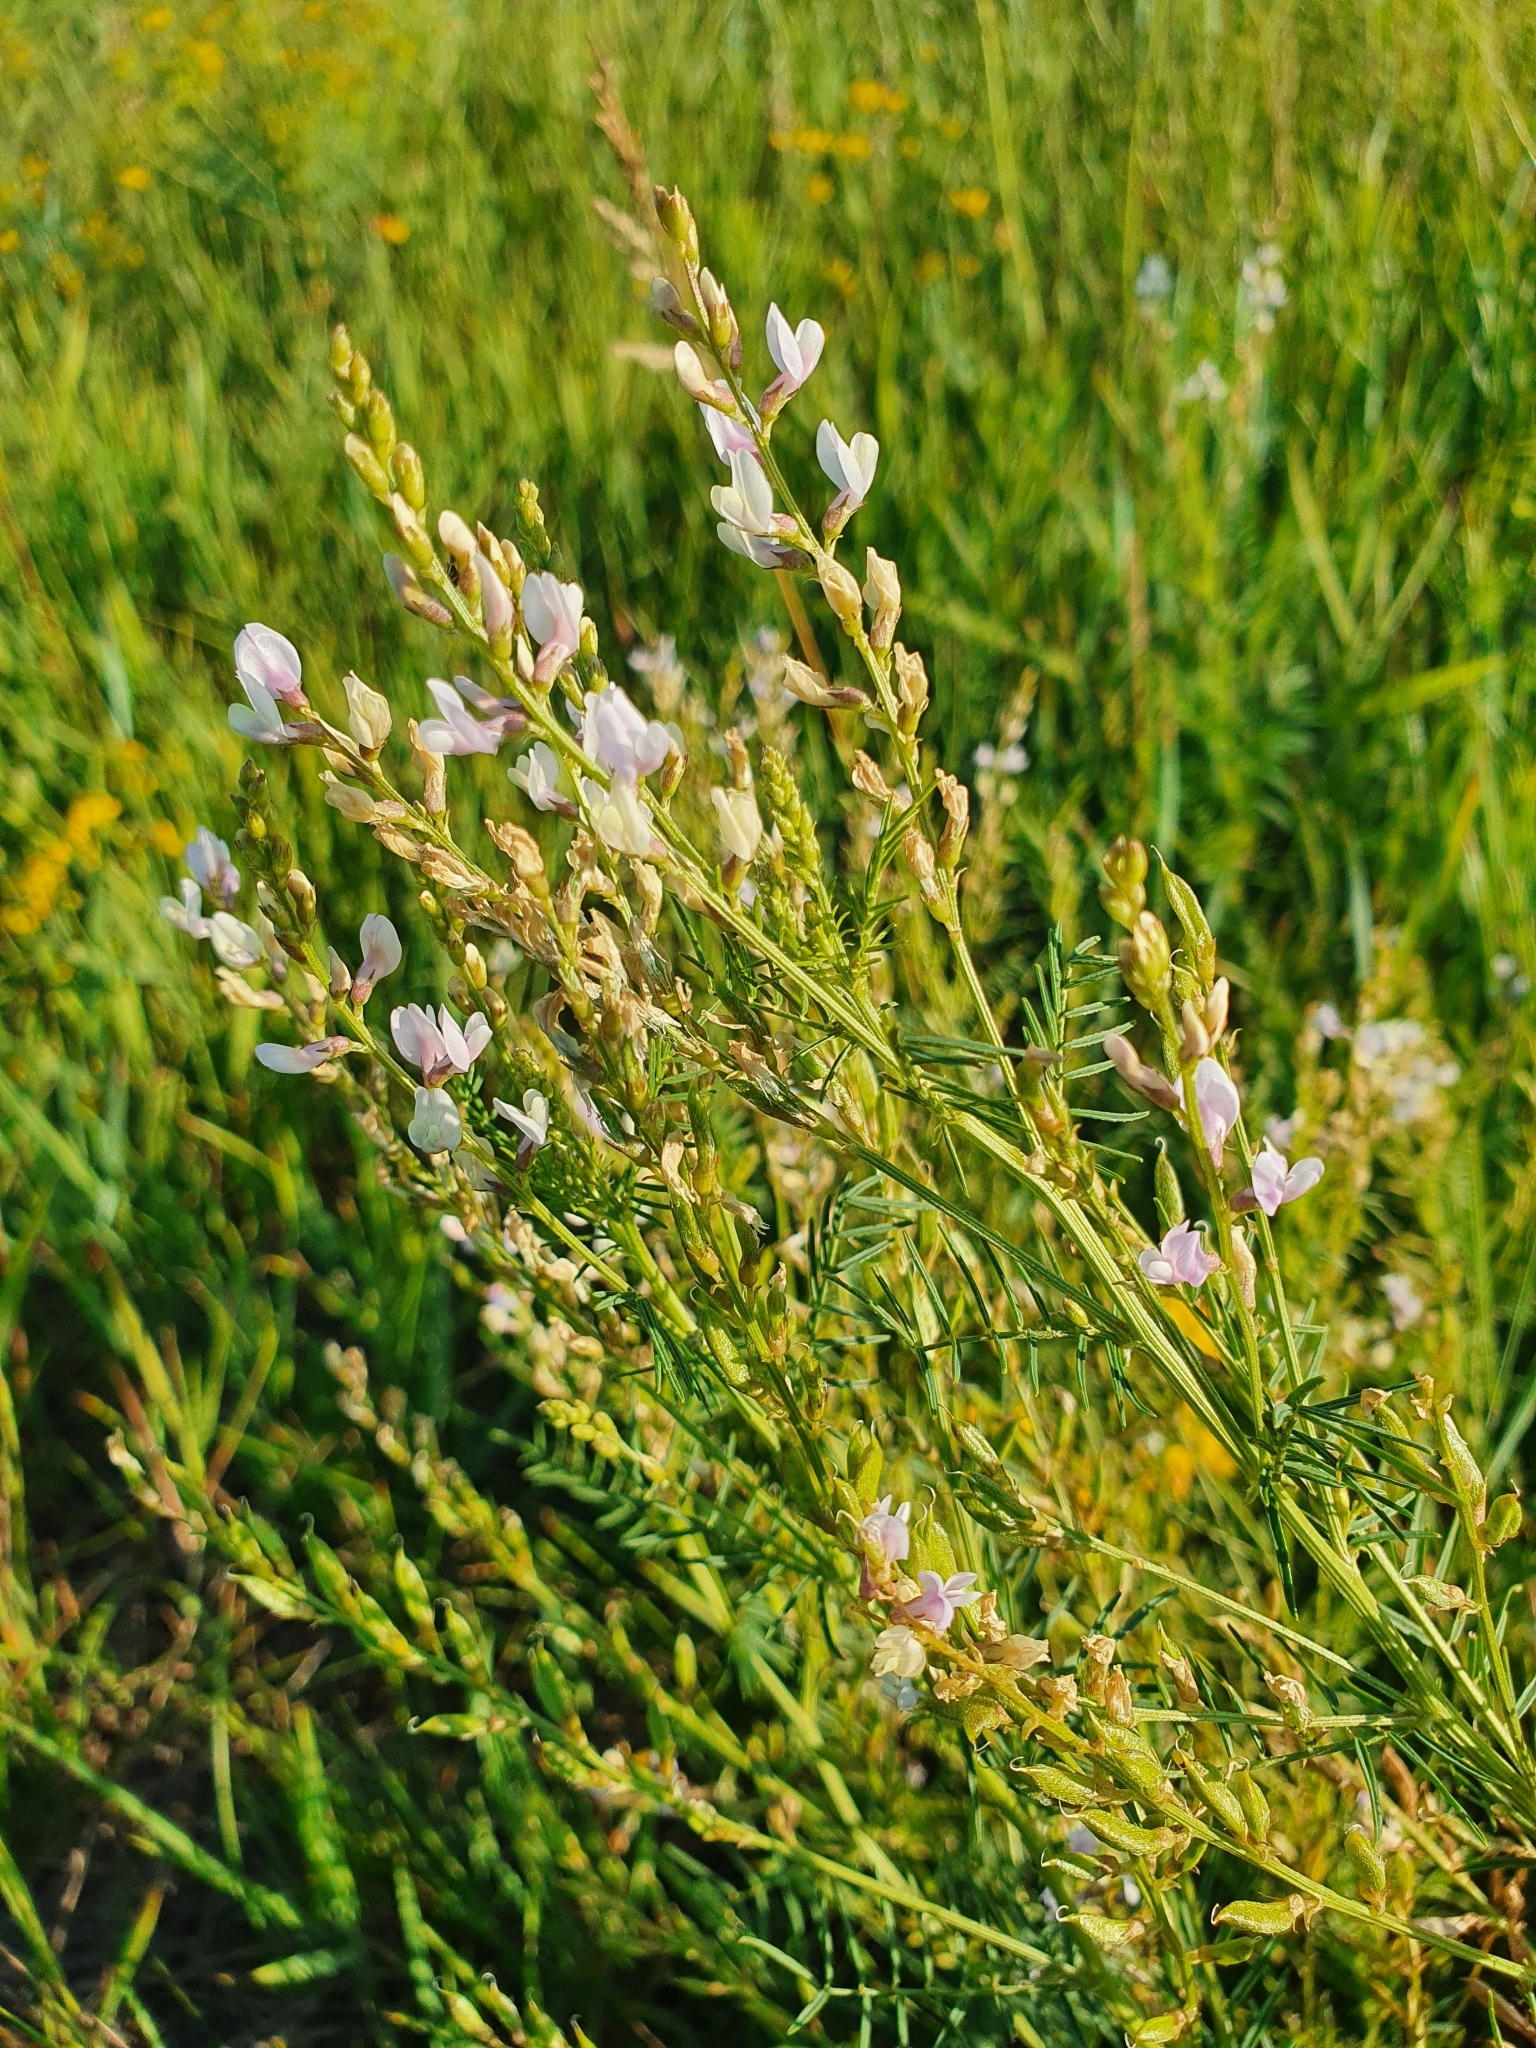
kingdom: Plantae
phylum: Tracheophyta
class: Magnoliopsida
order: Fabales
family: Fabaceae
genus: Astragalus
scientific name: Astragalus sulcatus
